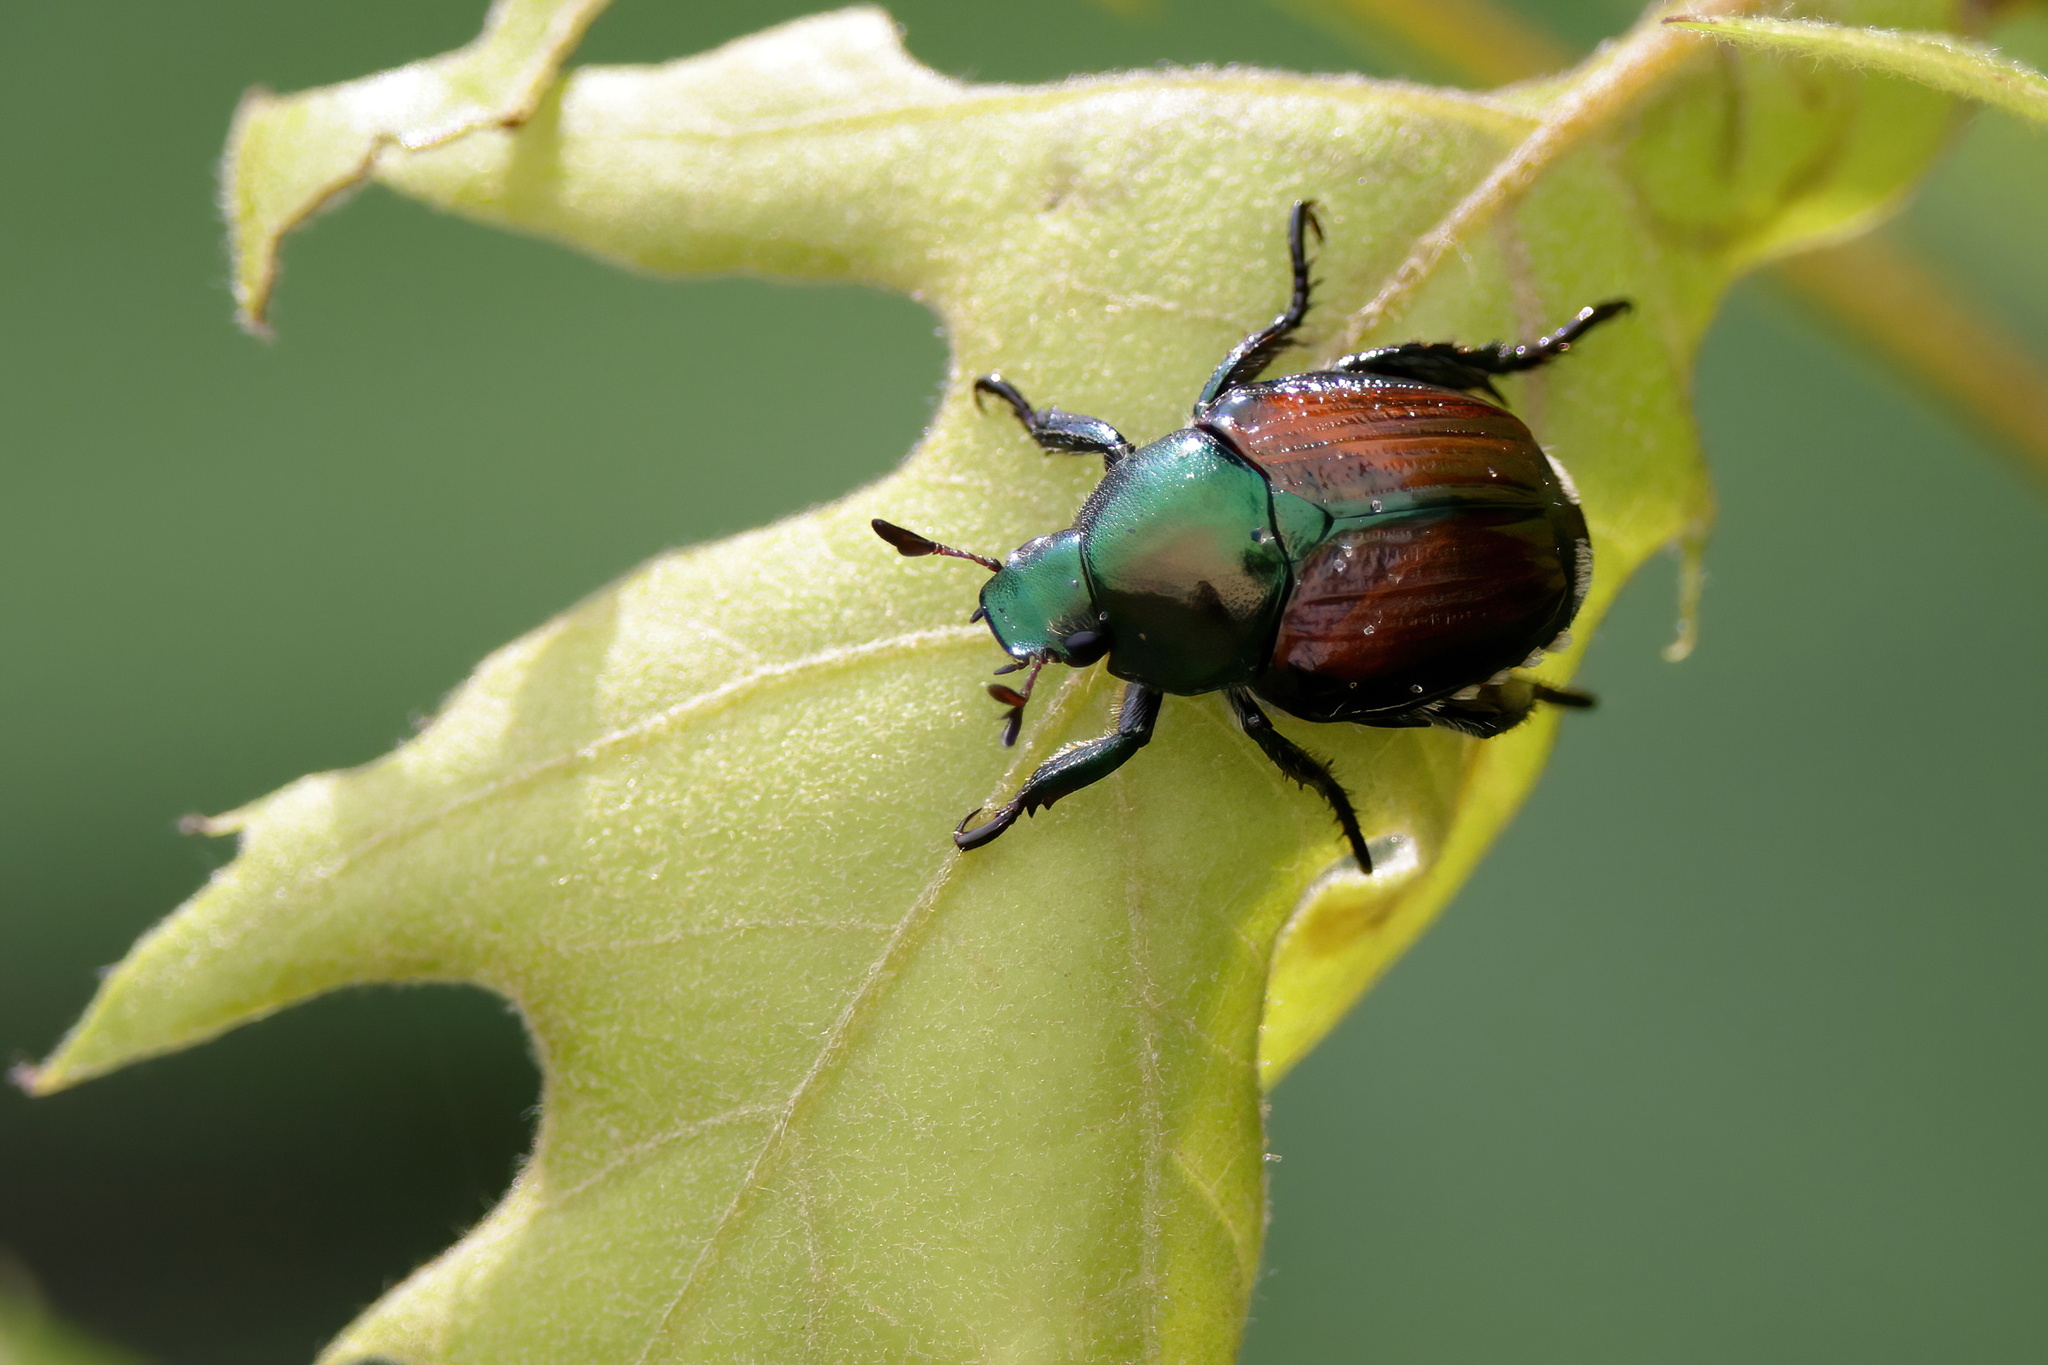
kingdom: Animalia
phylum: Arthropoda
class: Insecta
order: Coleoptera
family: Scarabaeidae
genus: Popillia
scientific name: Popillia japonica
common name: Japanese beetle
